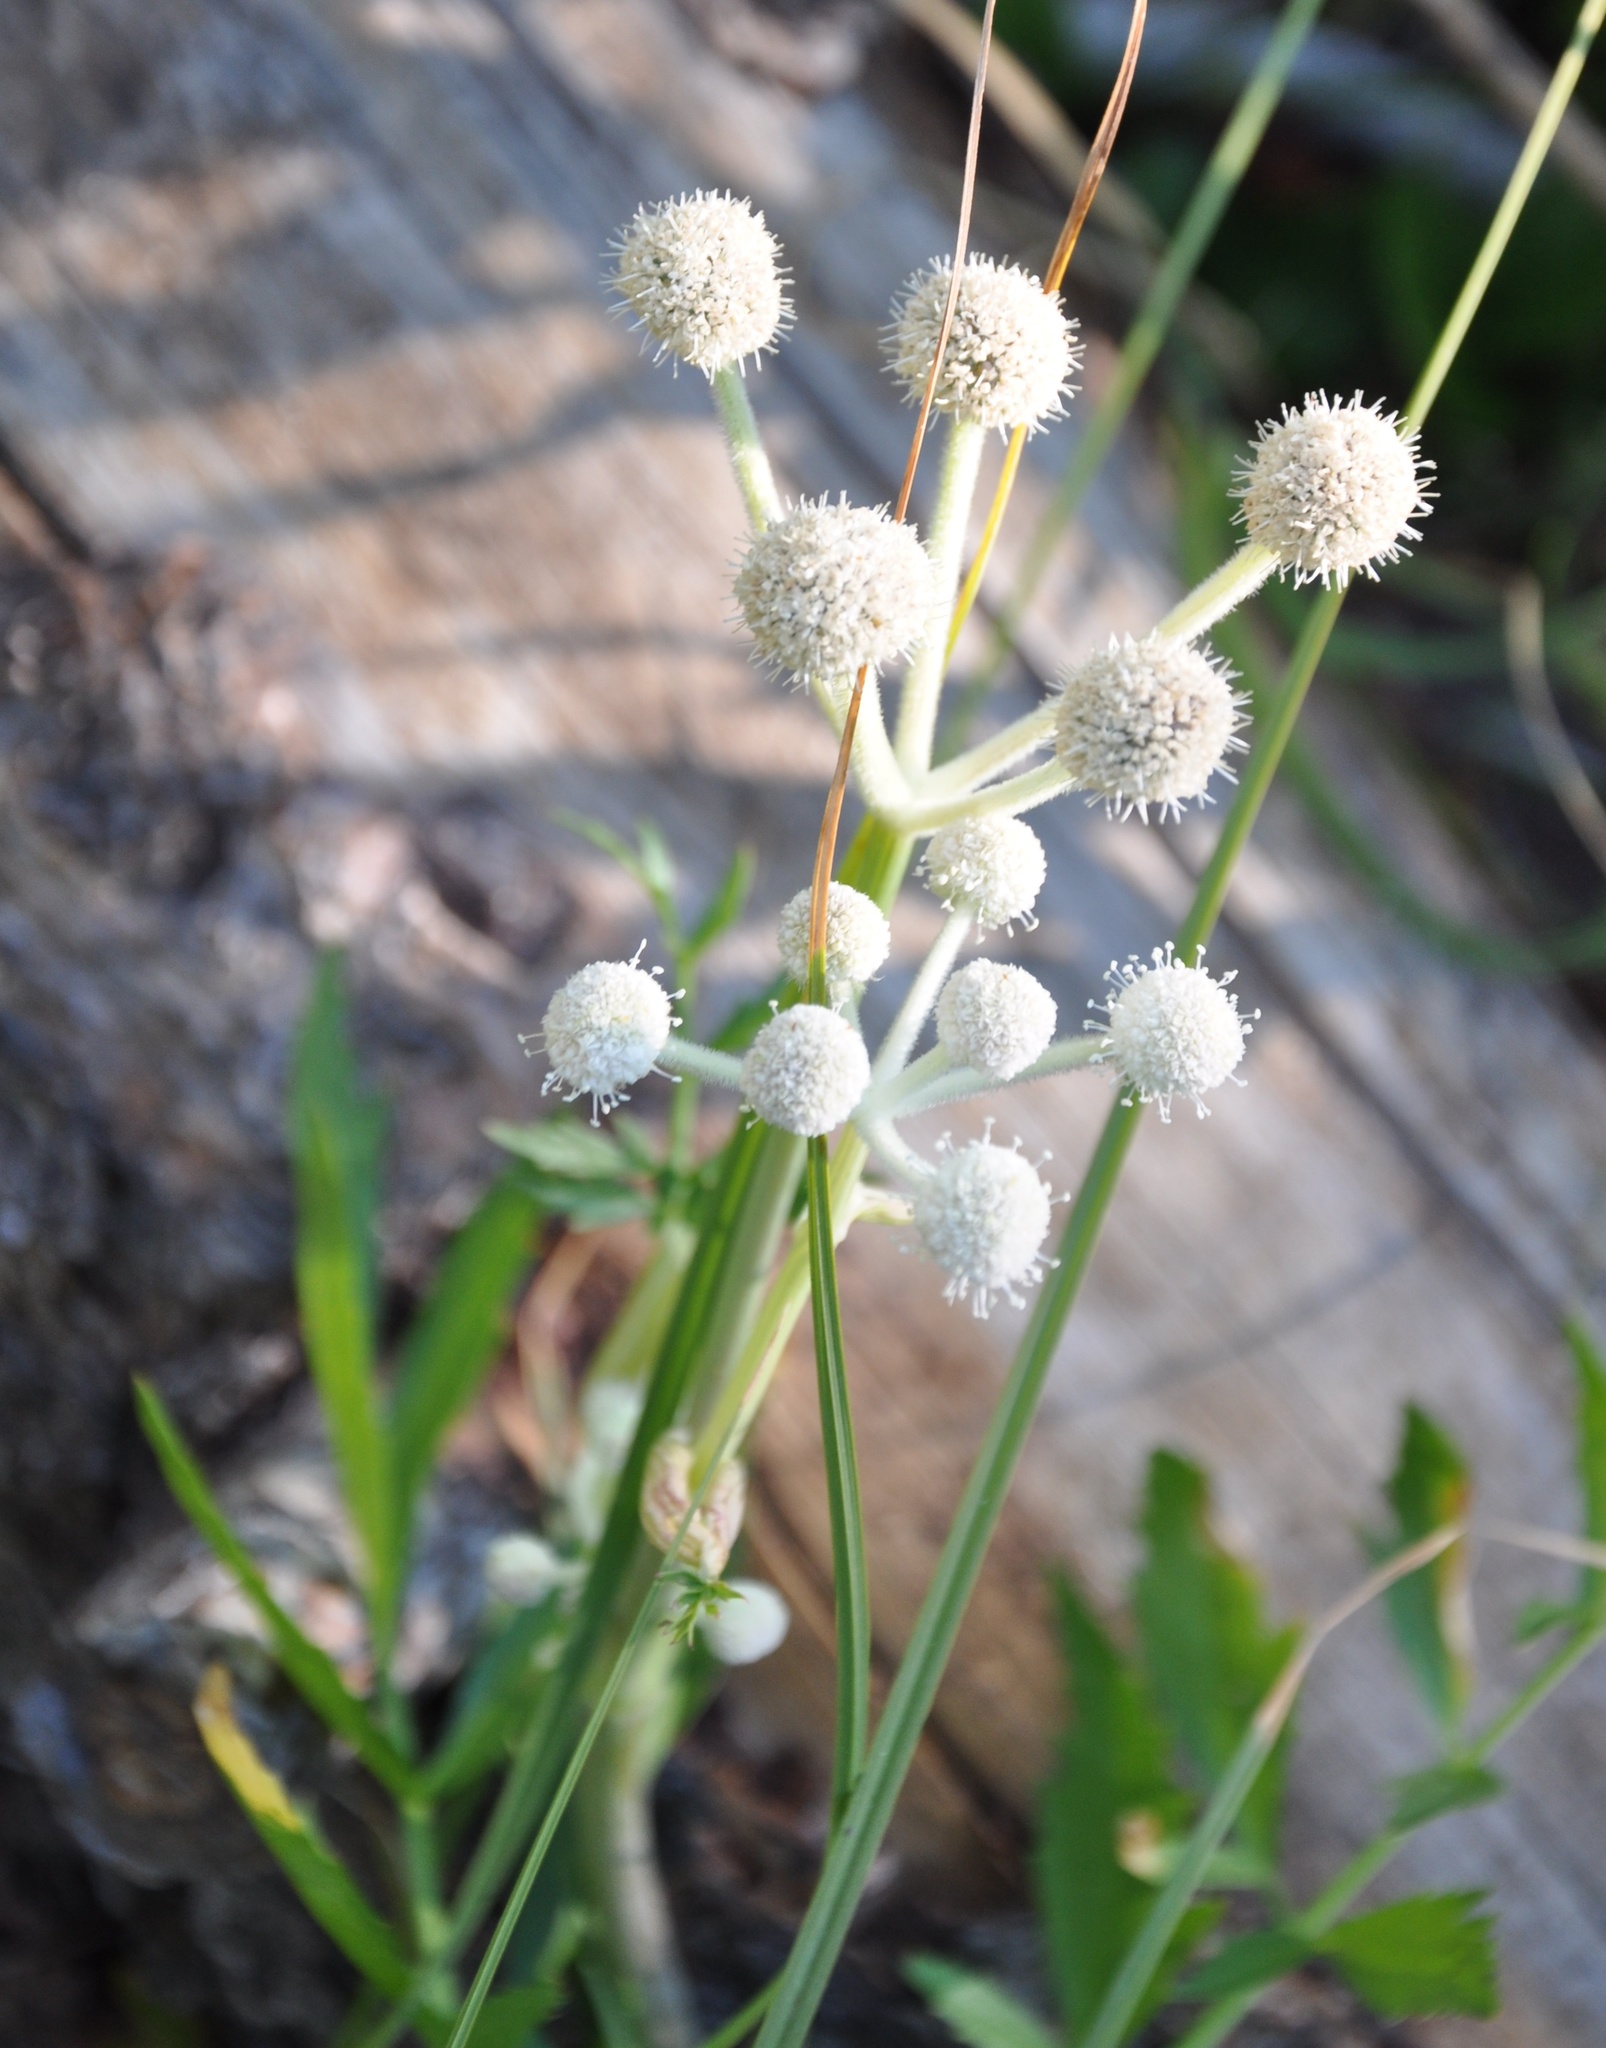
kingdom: Plantae
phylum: Tracheophyta
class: Magnoliopsida
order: Apiales
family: Apiaceae
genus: Angelica
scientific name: Angelica capitellata
